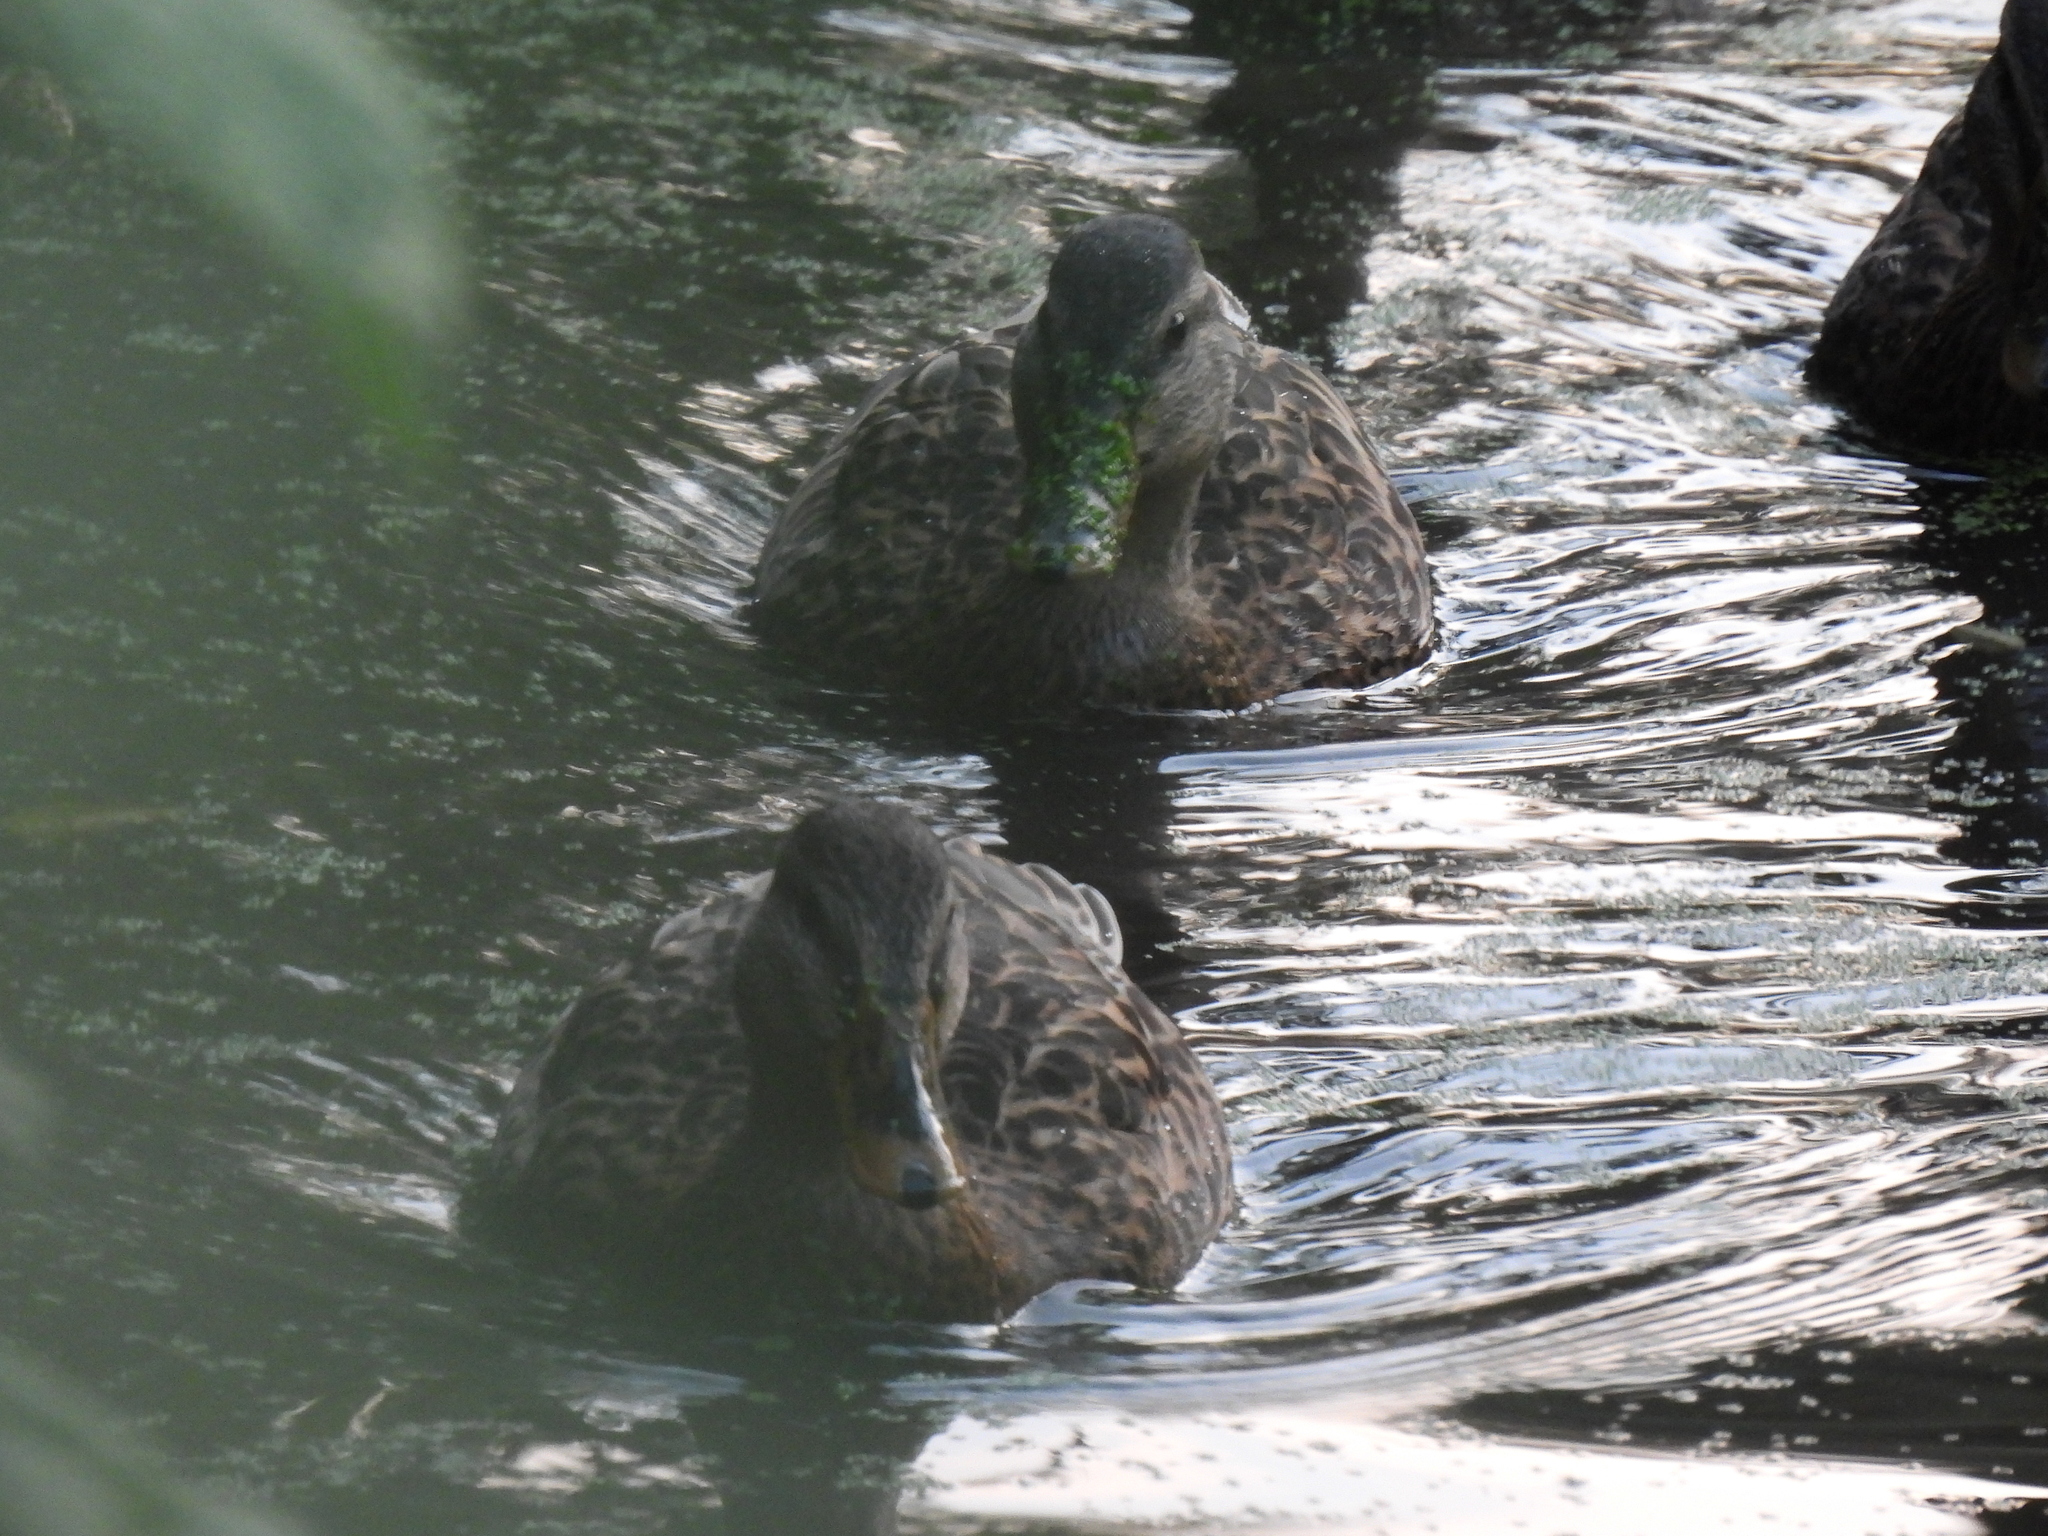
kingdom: Animalia
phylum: Chordata
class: Aves
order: Anseriformes
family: Anatidae
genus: Anas
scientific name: Anas platyrhynchos
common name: Mallard
